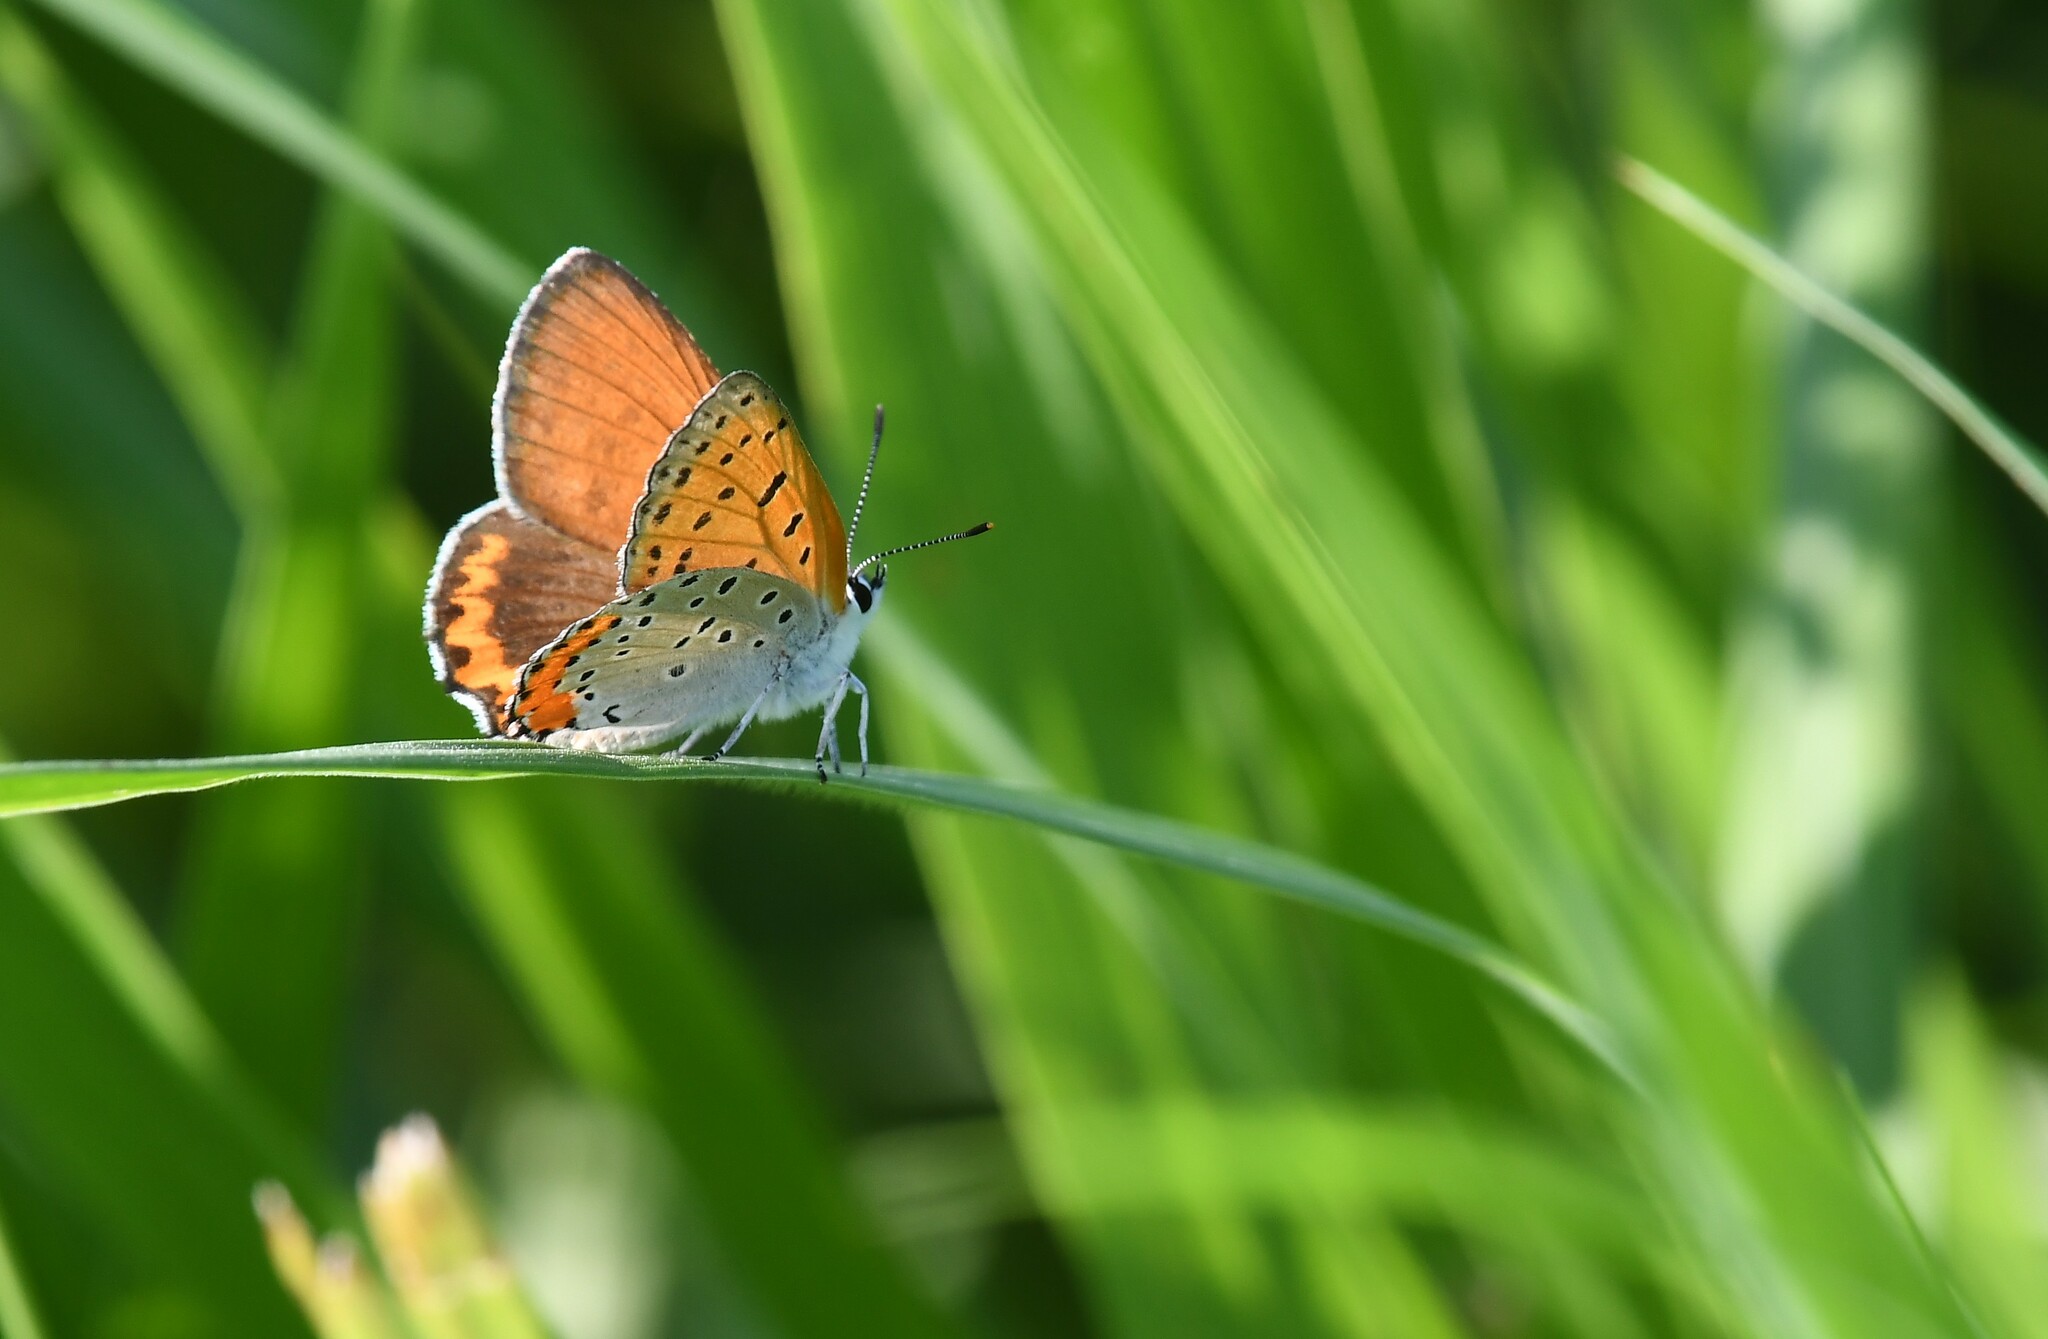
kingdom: Animalia
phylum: Arthropoda
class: Insecta
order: Lepidoptera
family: Lycaenidae
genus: Tharsalea
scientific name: Tharsalea hyllus
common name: Bronze copper
